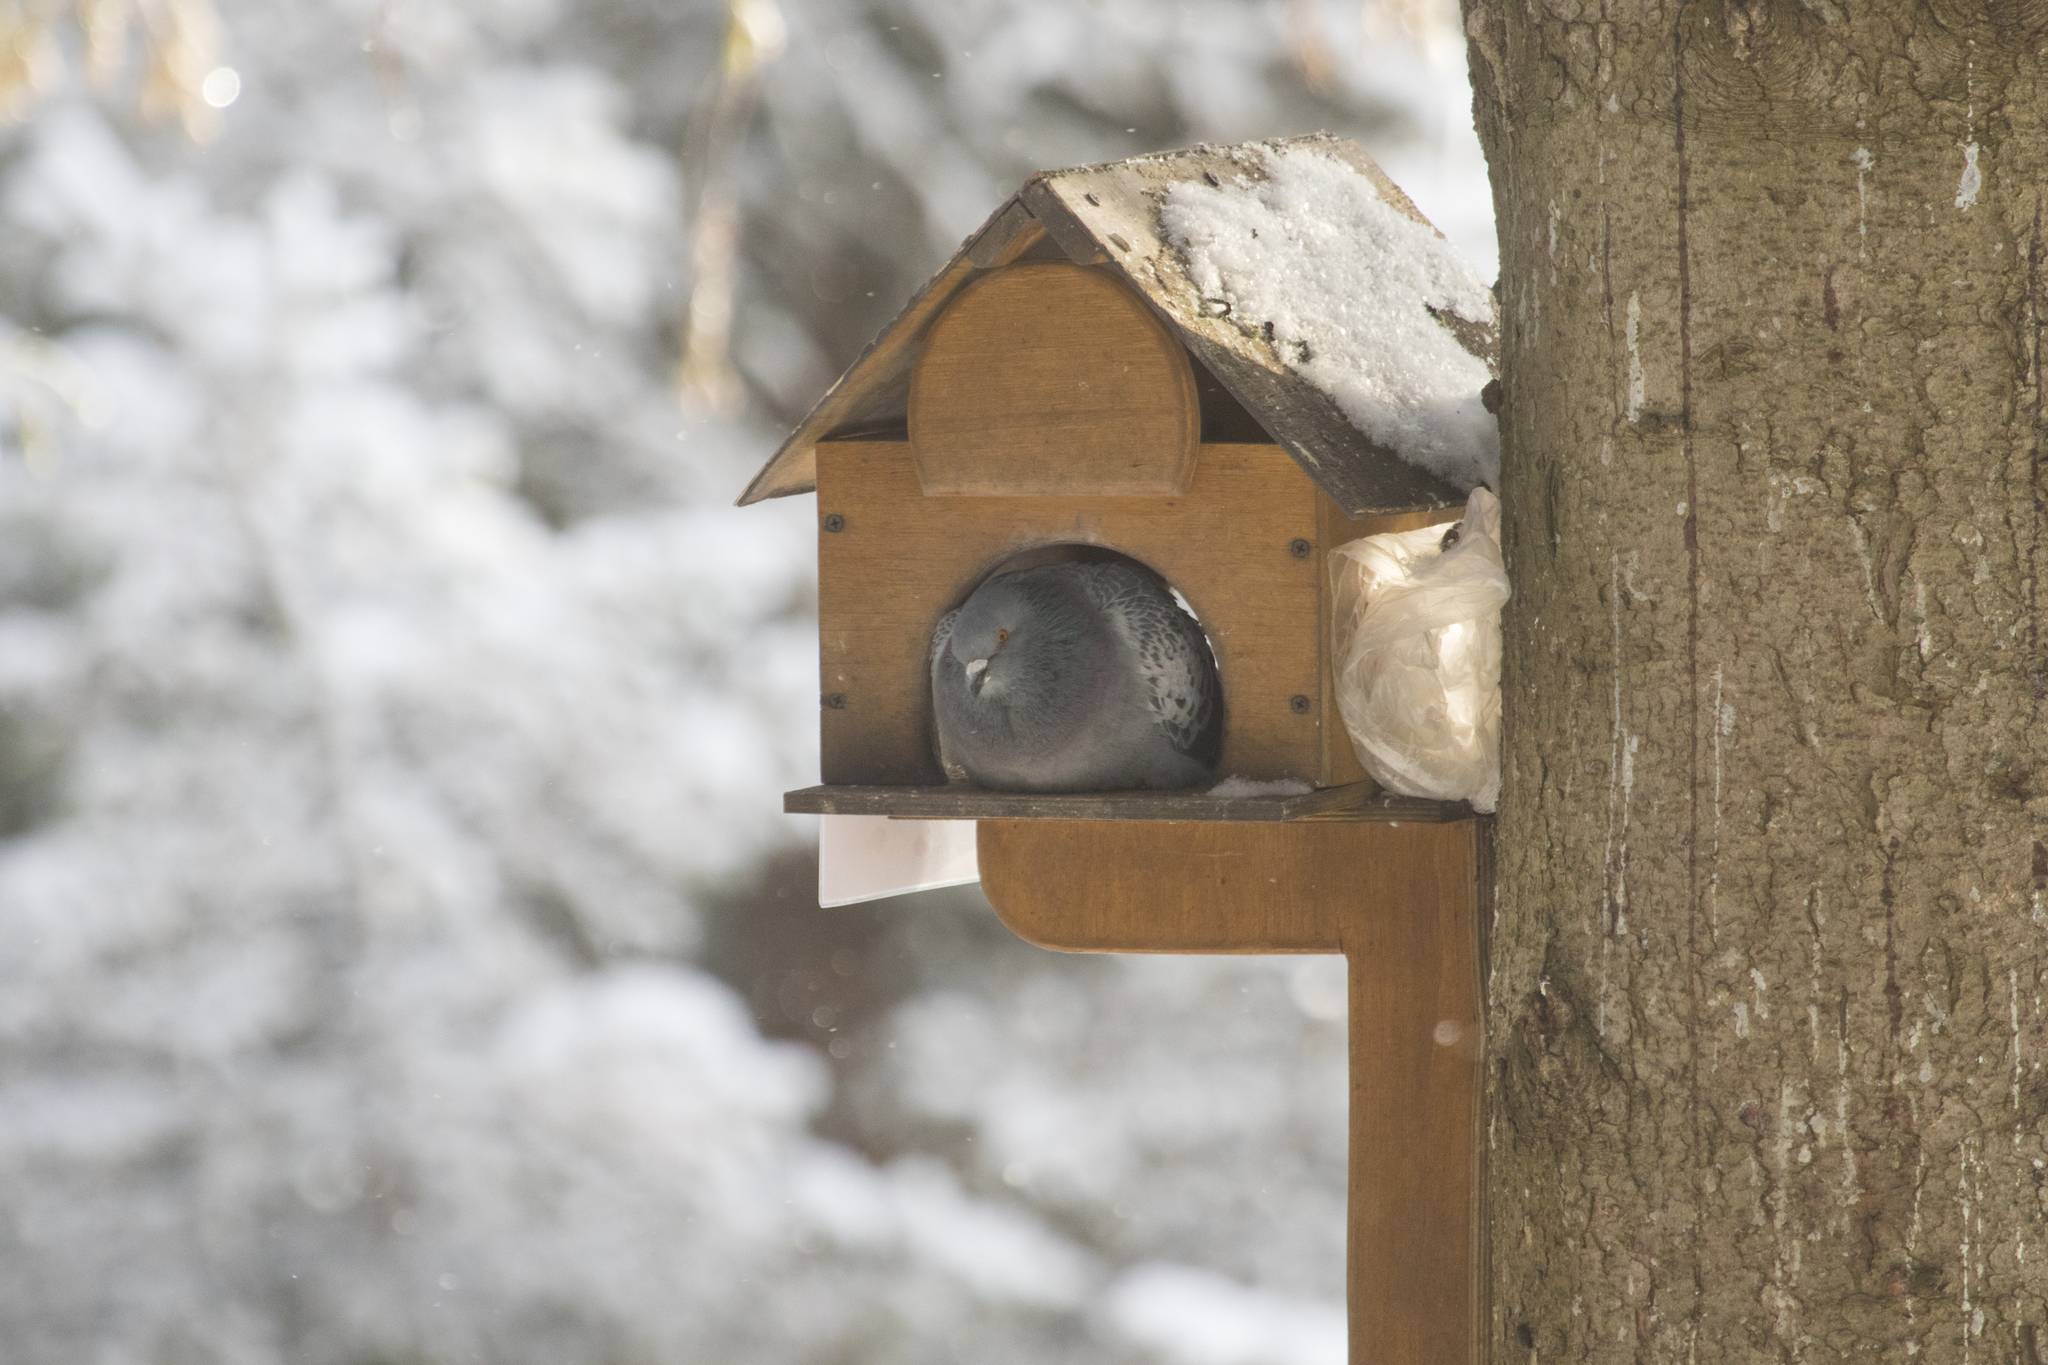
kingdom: Animalia
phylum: Chordata
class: Aves
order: Columbiformes
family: Columbidae
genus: Columba
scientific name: Columba livia
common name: Rock pigeon
